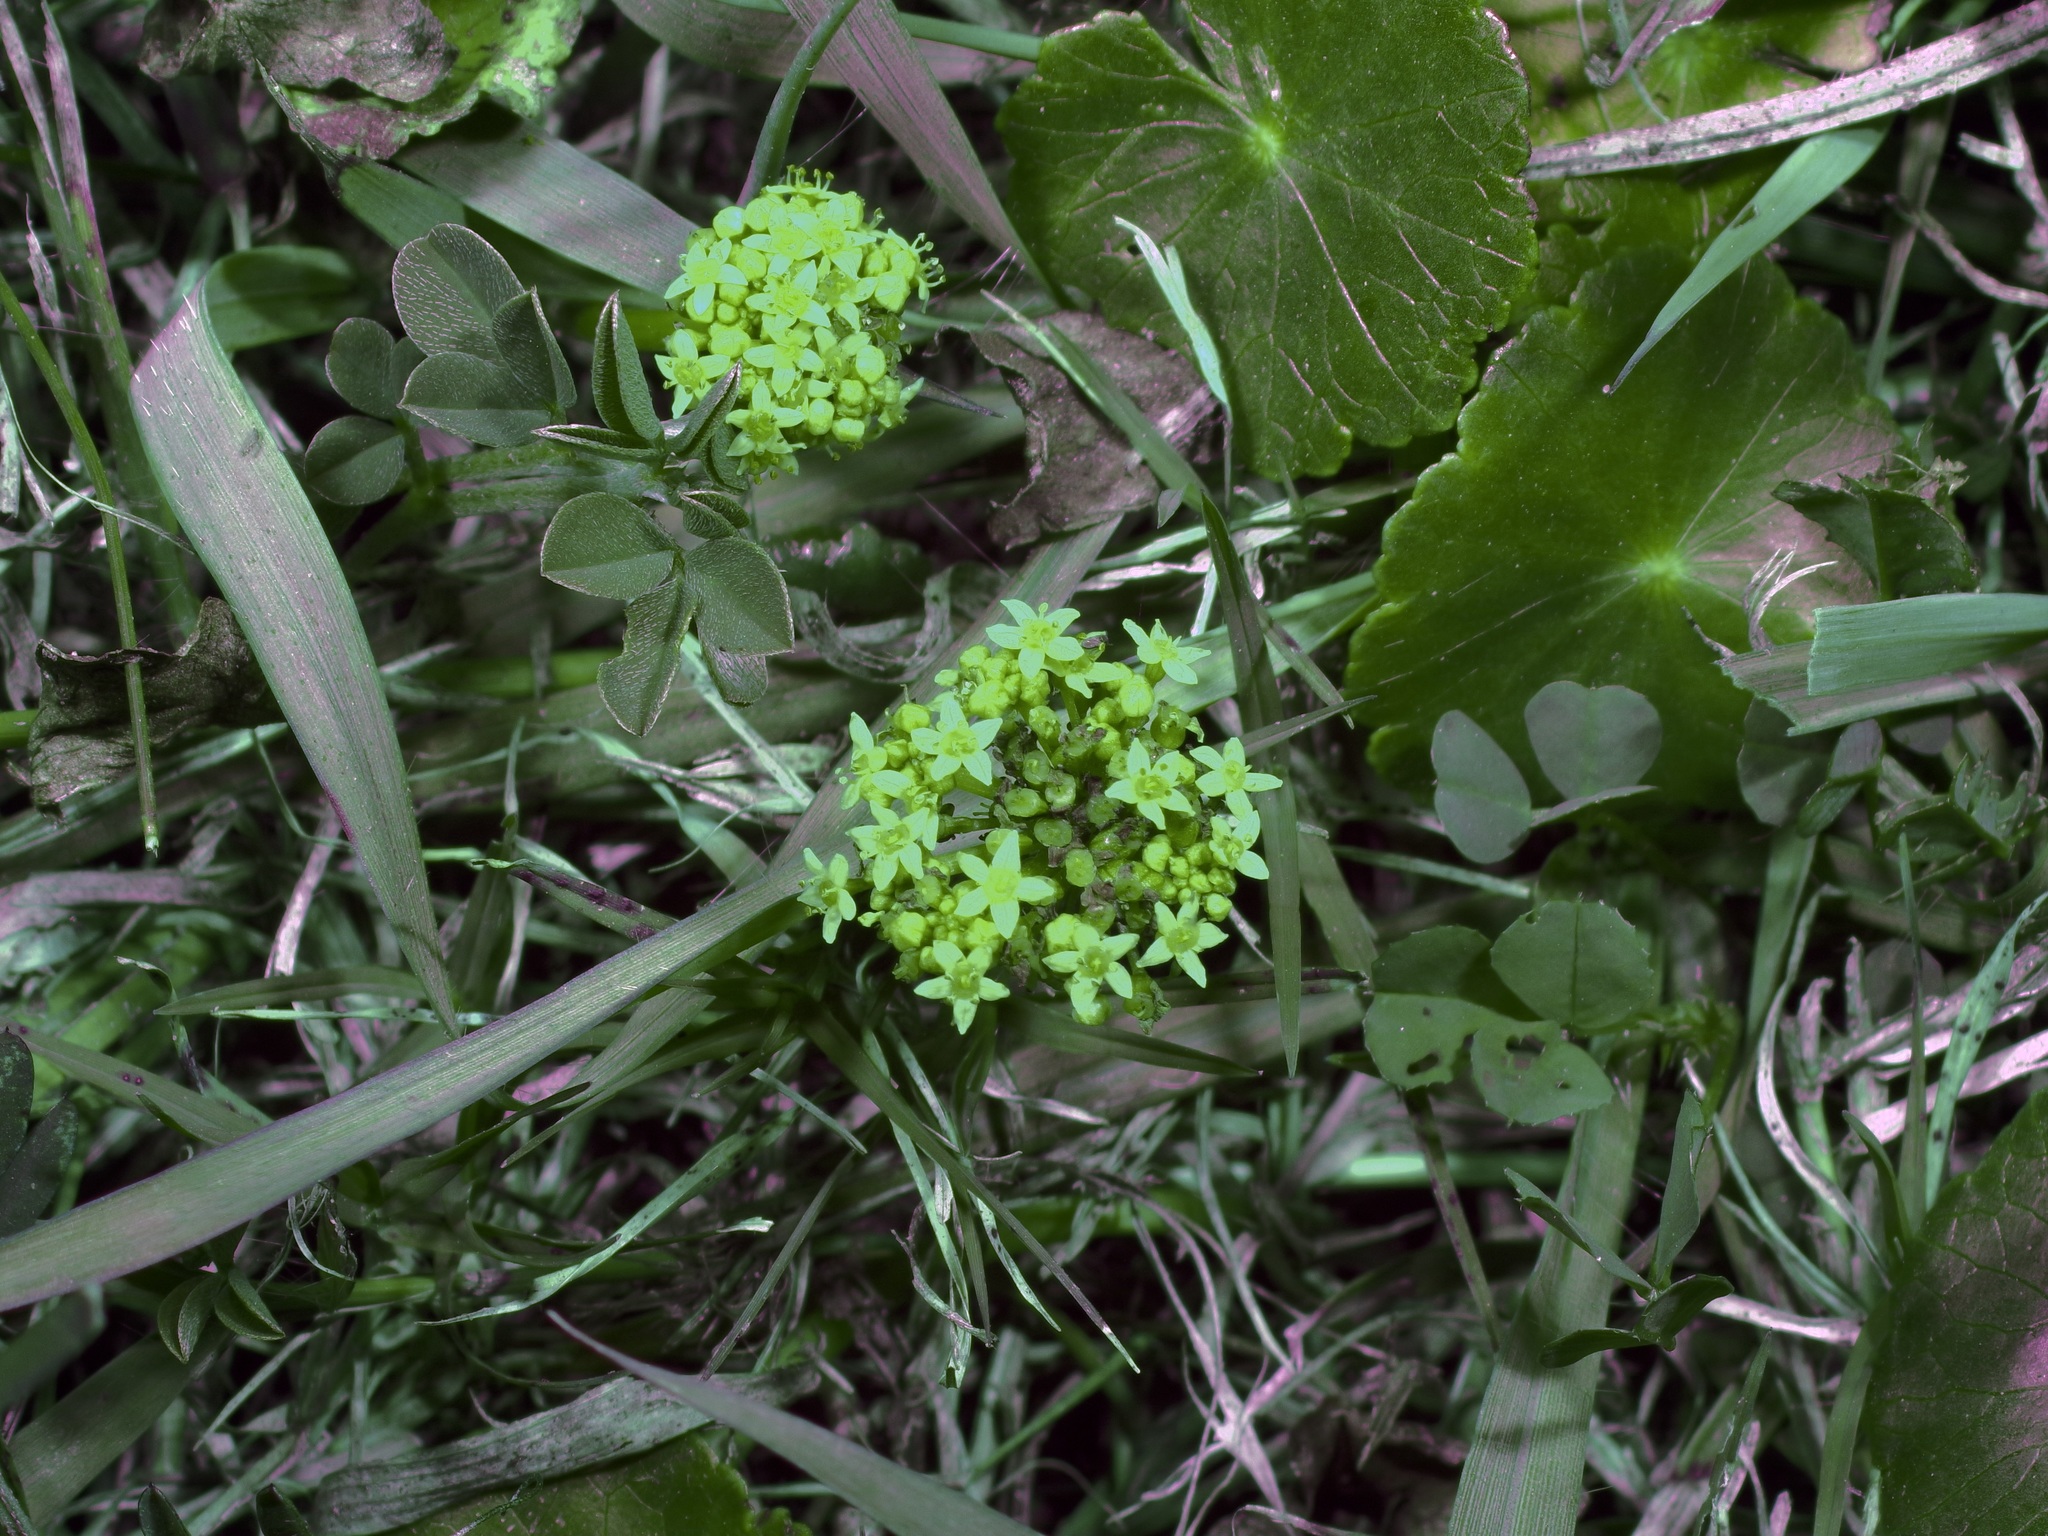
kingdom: Plantae
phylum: Tracheophyta
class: Magnoliopsida
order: Apiales
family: Araliaceae
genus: Hydrocotyle
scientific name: Hydrocotyle bonariensis
